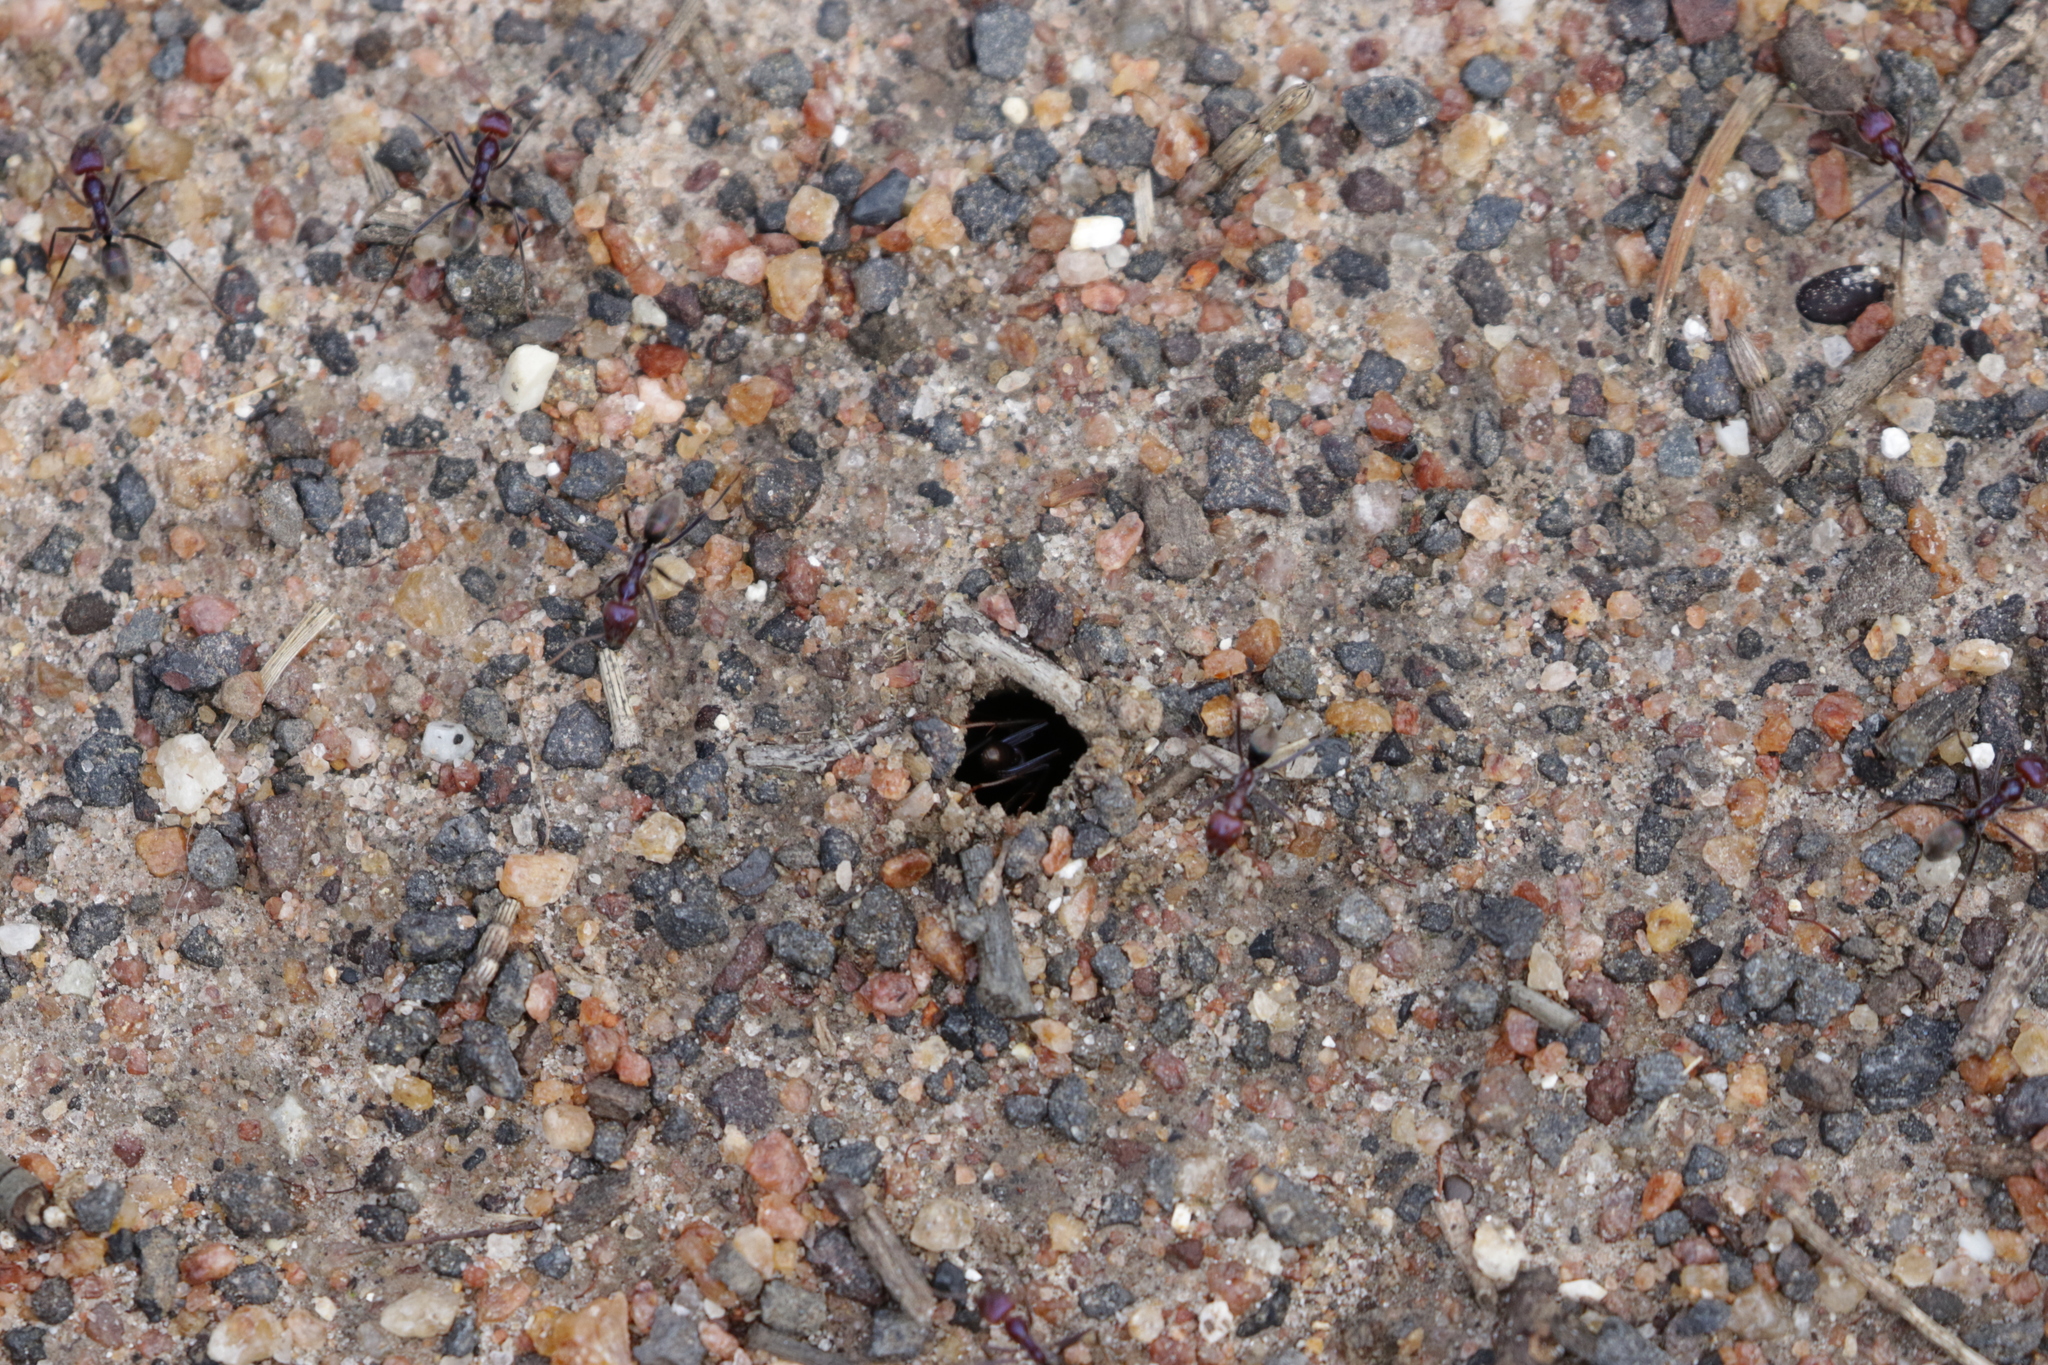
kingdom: Animalia
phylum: Arthropoda
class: Insecta
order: Hymenoptera
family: Formicidae
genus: Iridomyrmex
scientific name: Iridomyrmex purpureus
